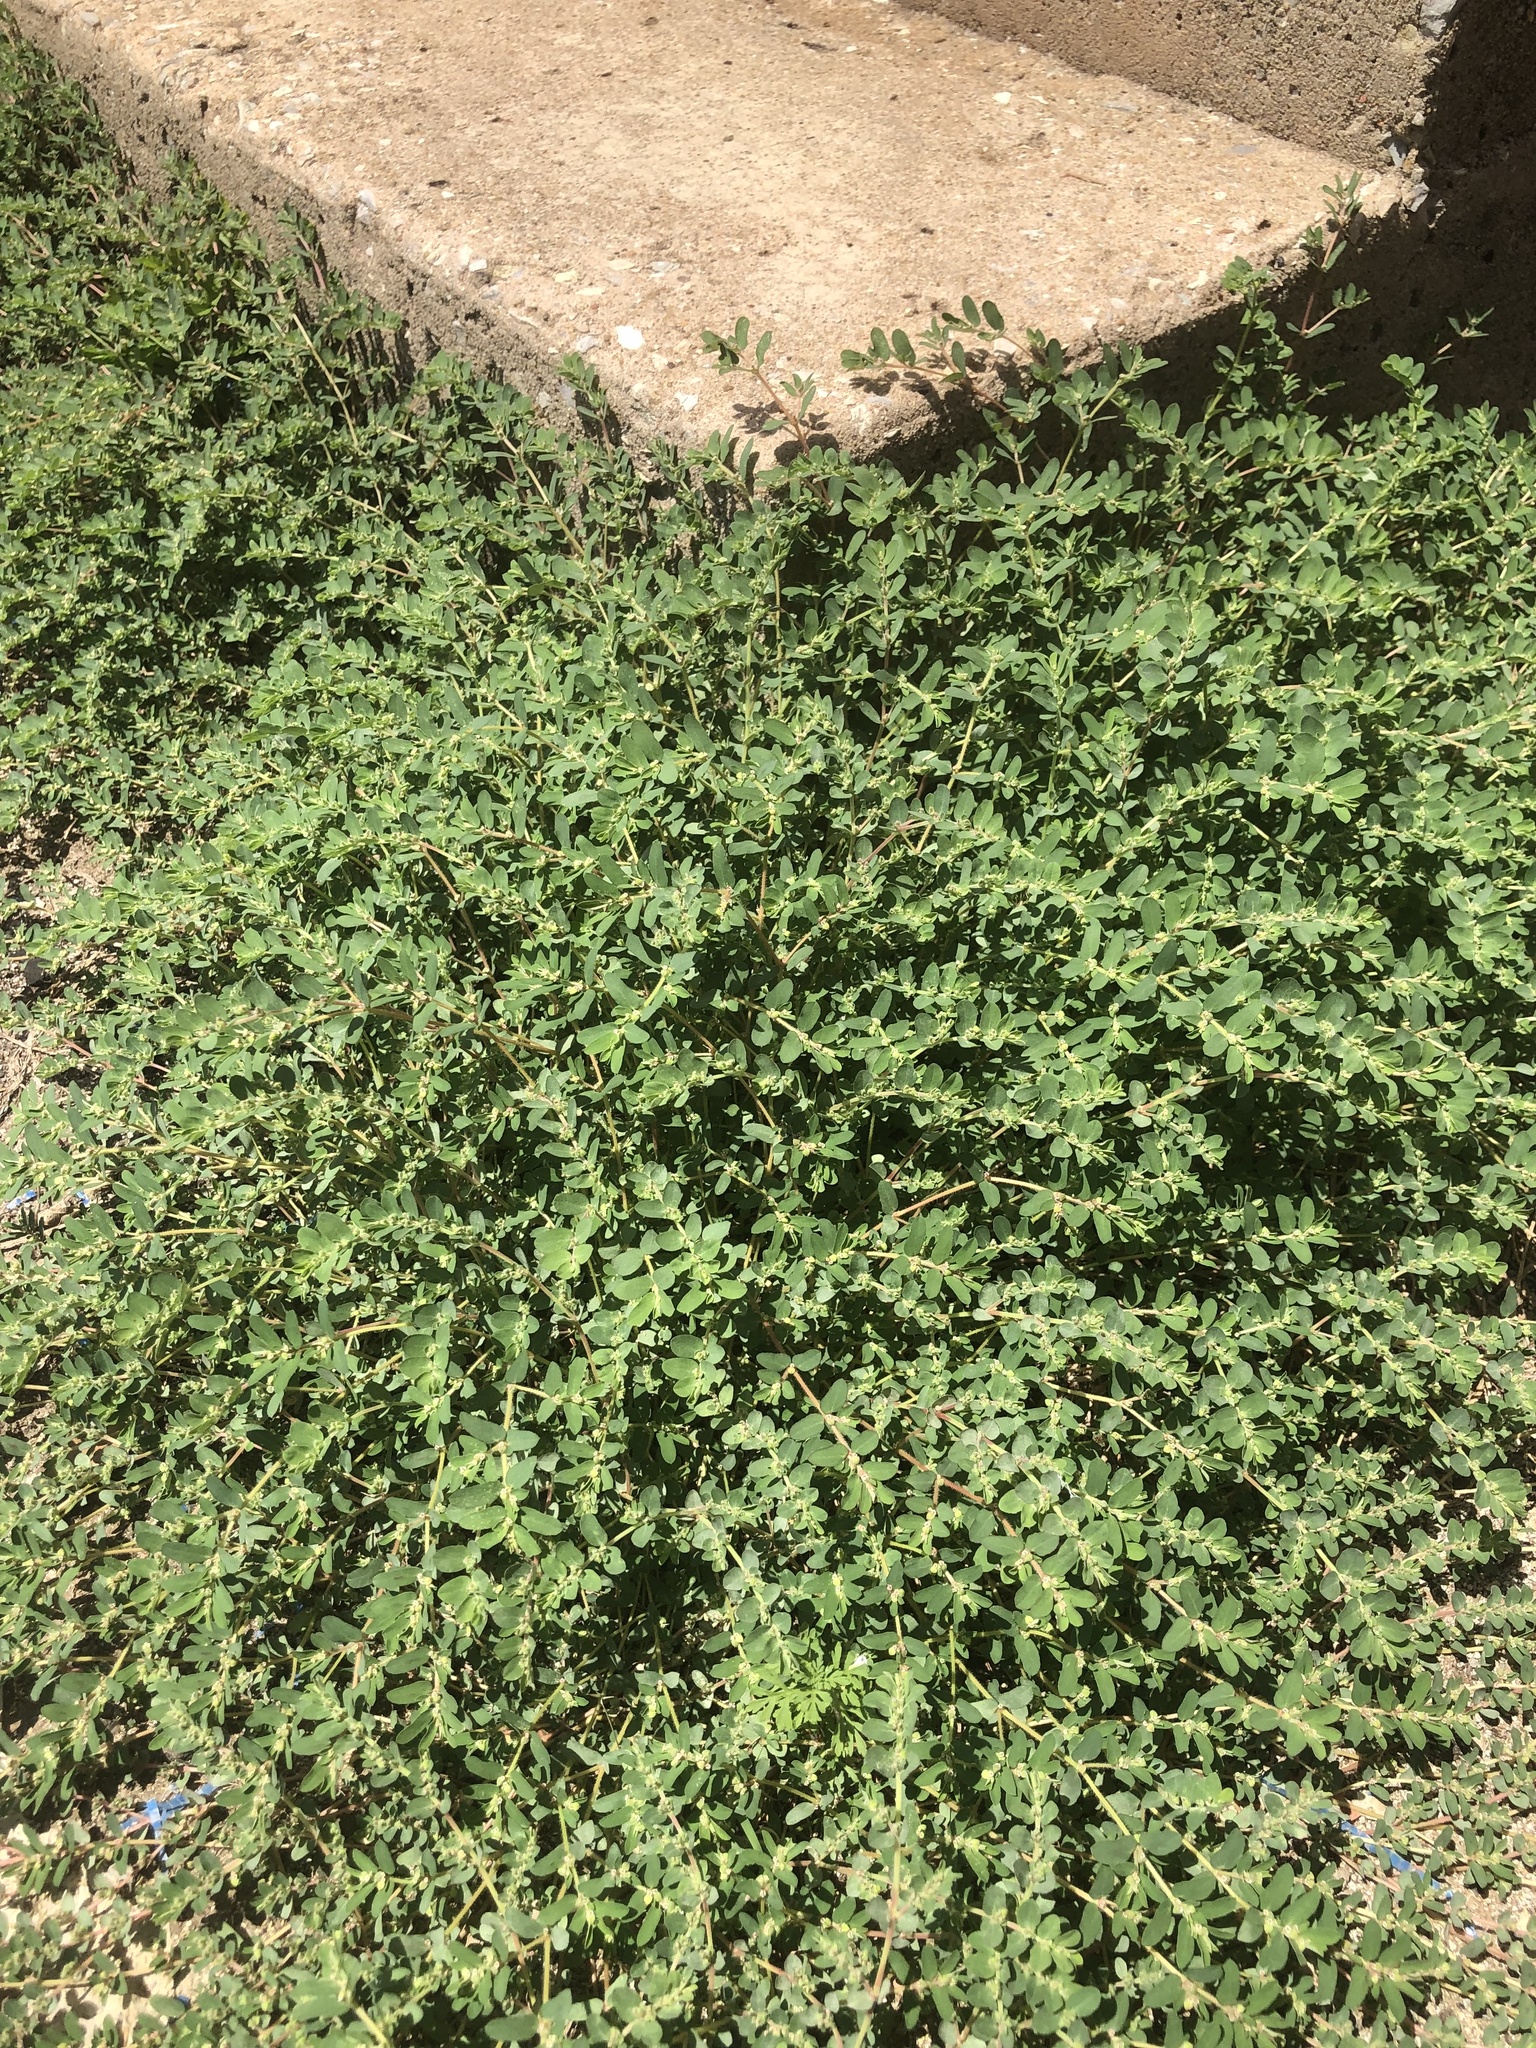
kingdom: Plantae
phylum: Tracheophyta
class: Magnoliopsida
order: Malpighiales
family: Euphorbiaceae
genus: Euphorbia
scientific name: Euphorbia prostrata
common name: Prostrate sandmat
